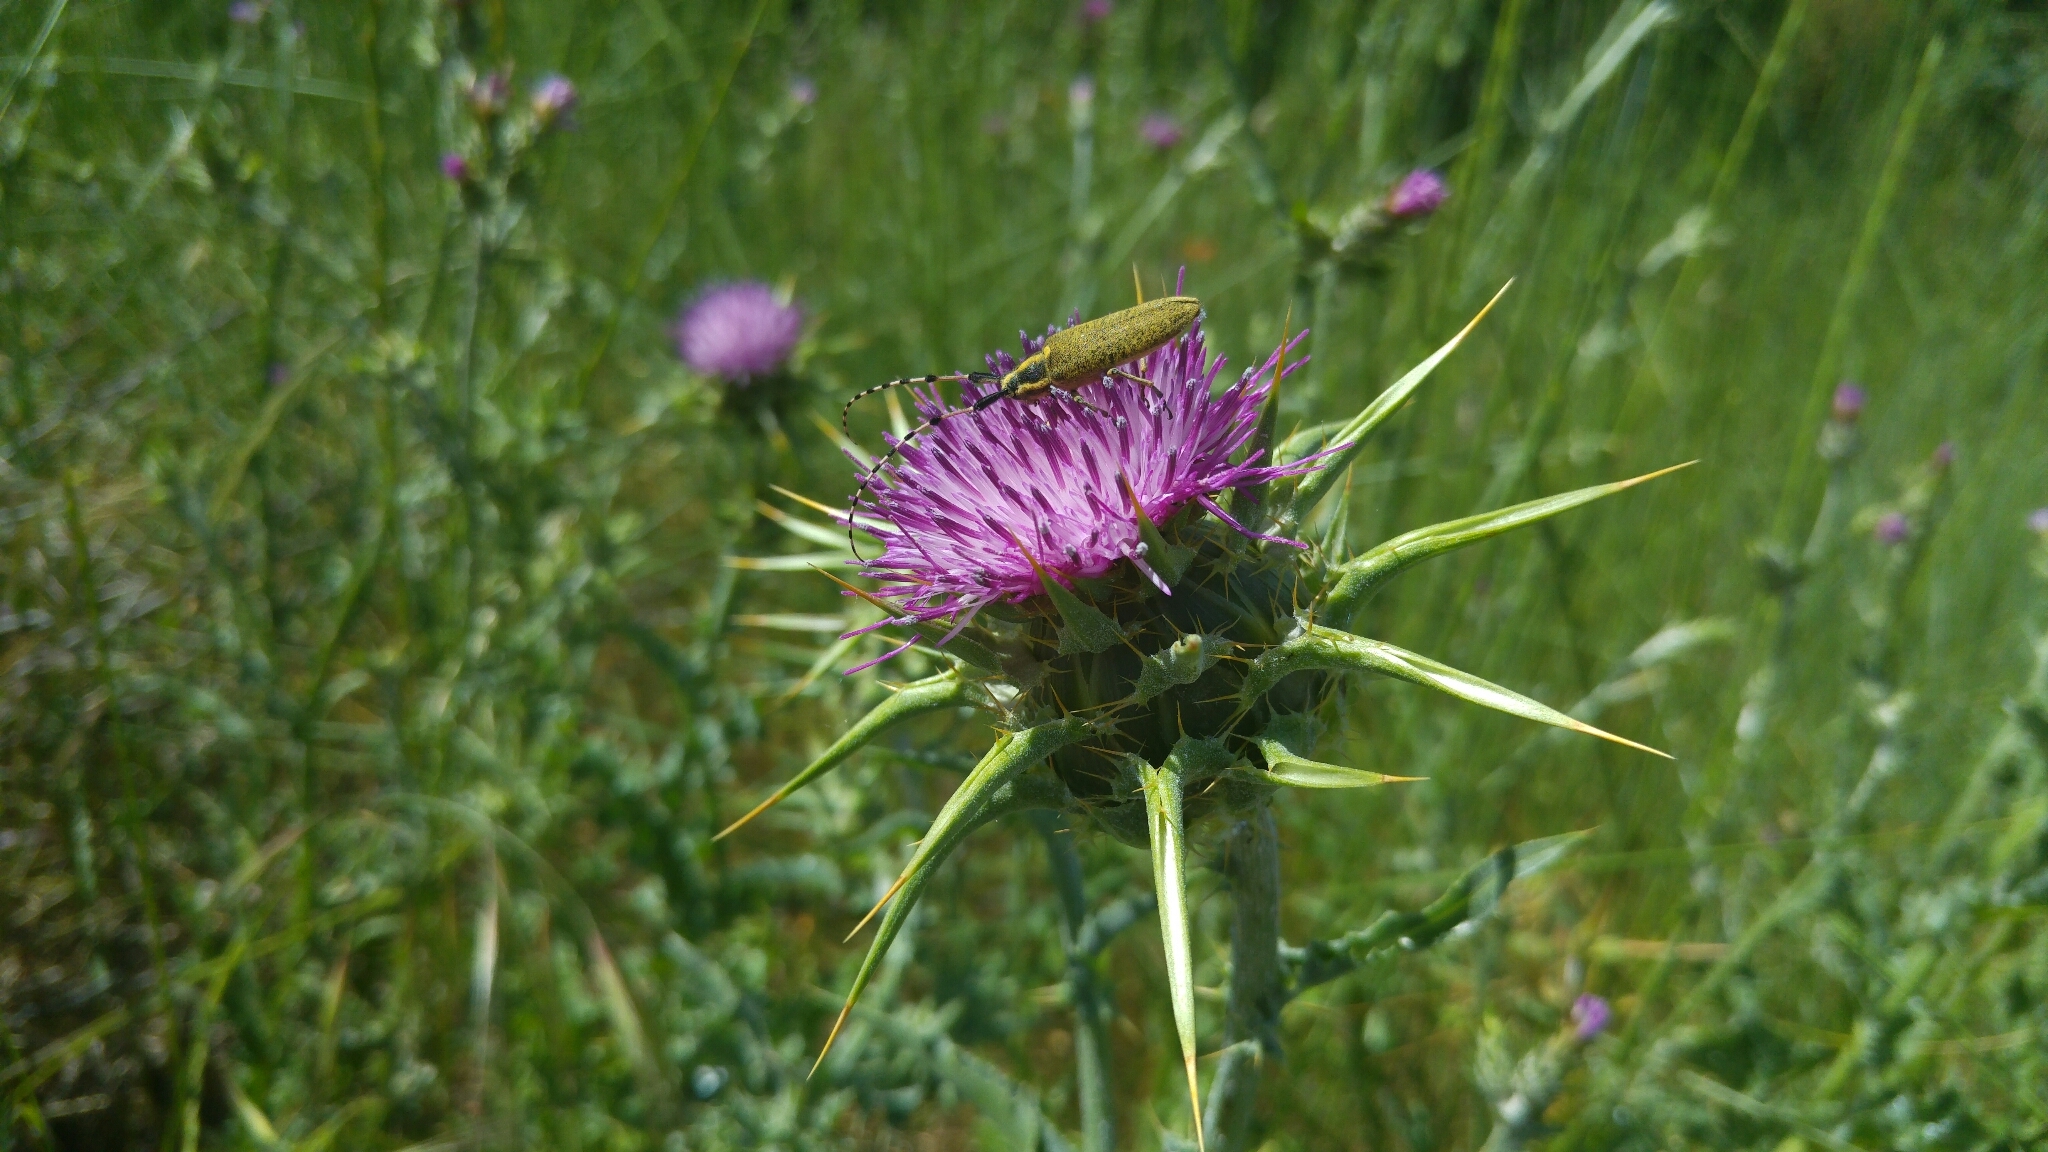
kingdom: Animalia
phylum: Arthropoda
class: Insecta
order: Coleoptera
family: Cerambycidae
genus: Agapanthia
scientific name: Agapanthia dahlii
